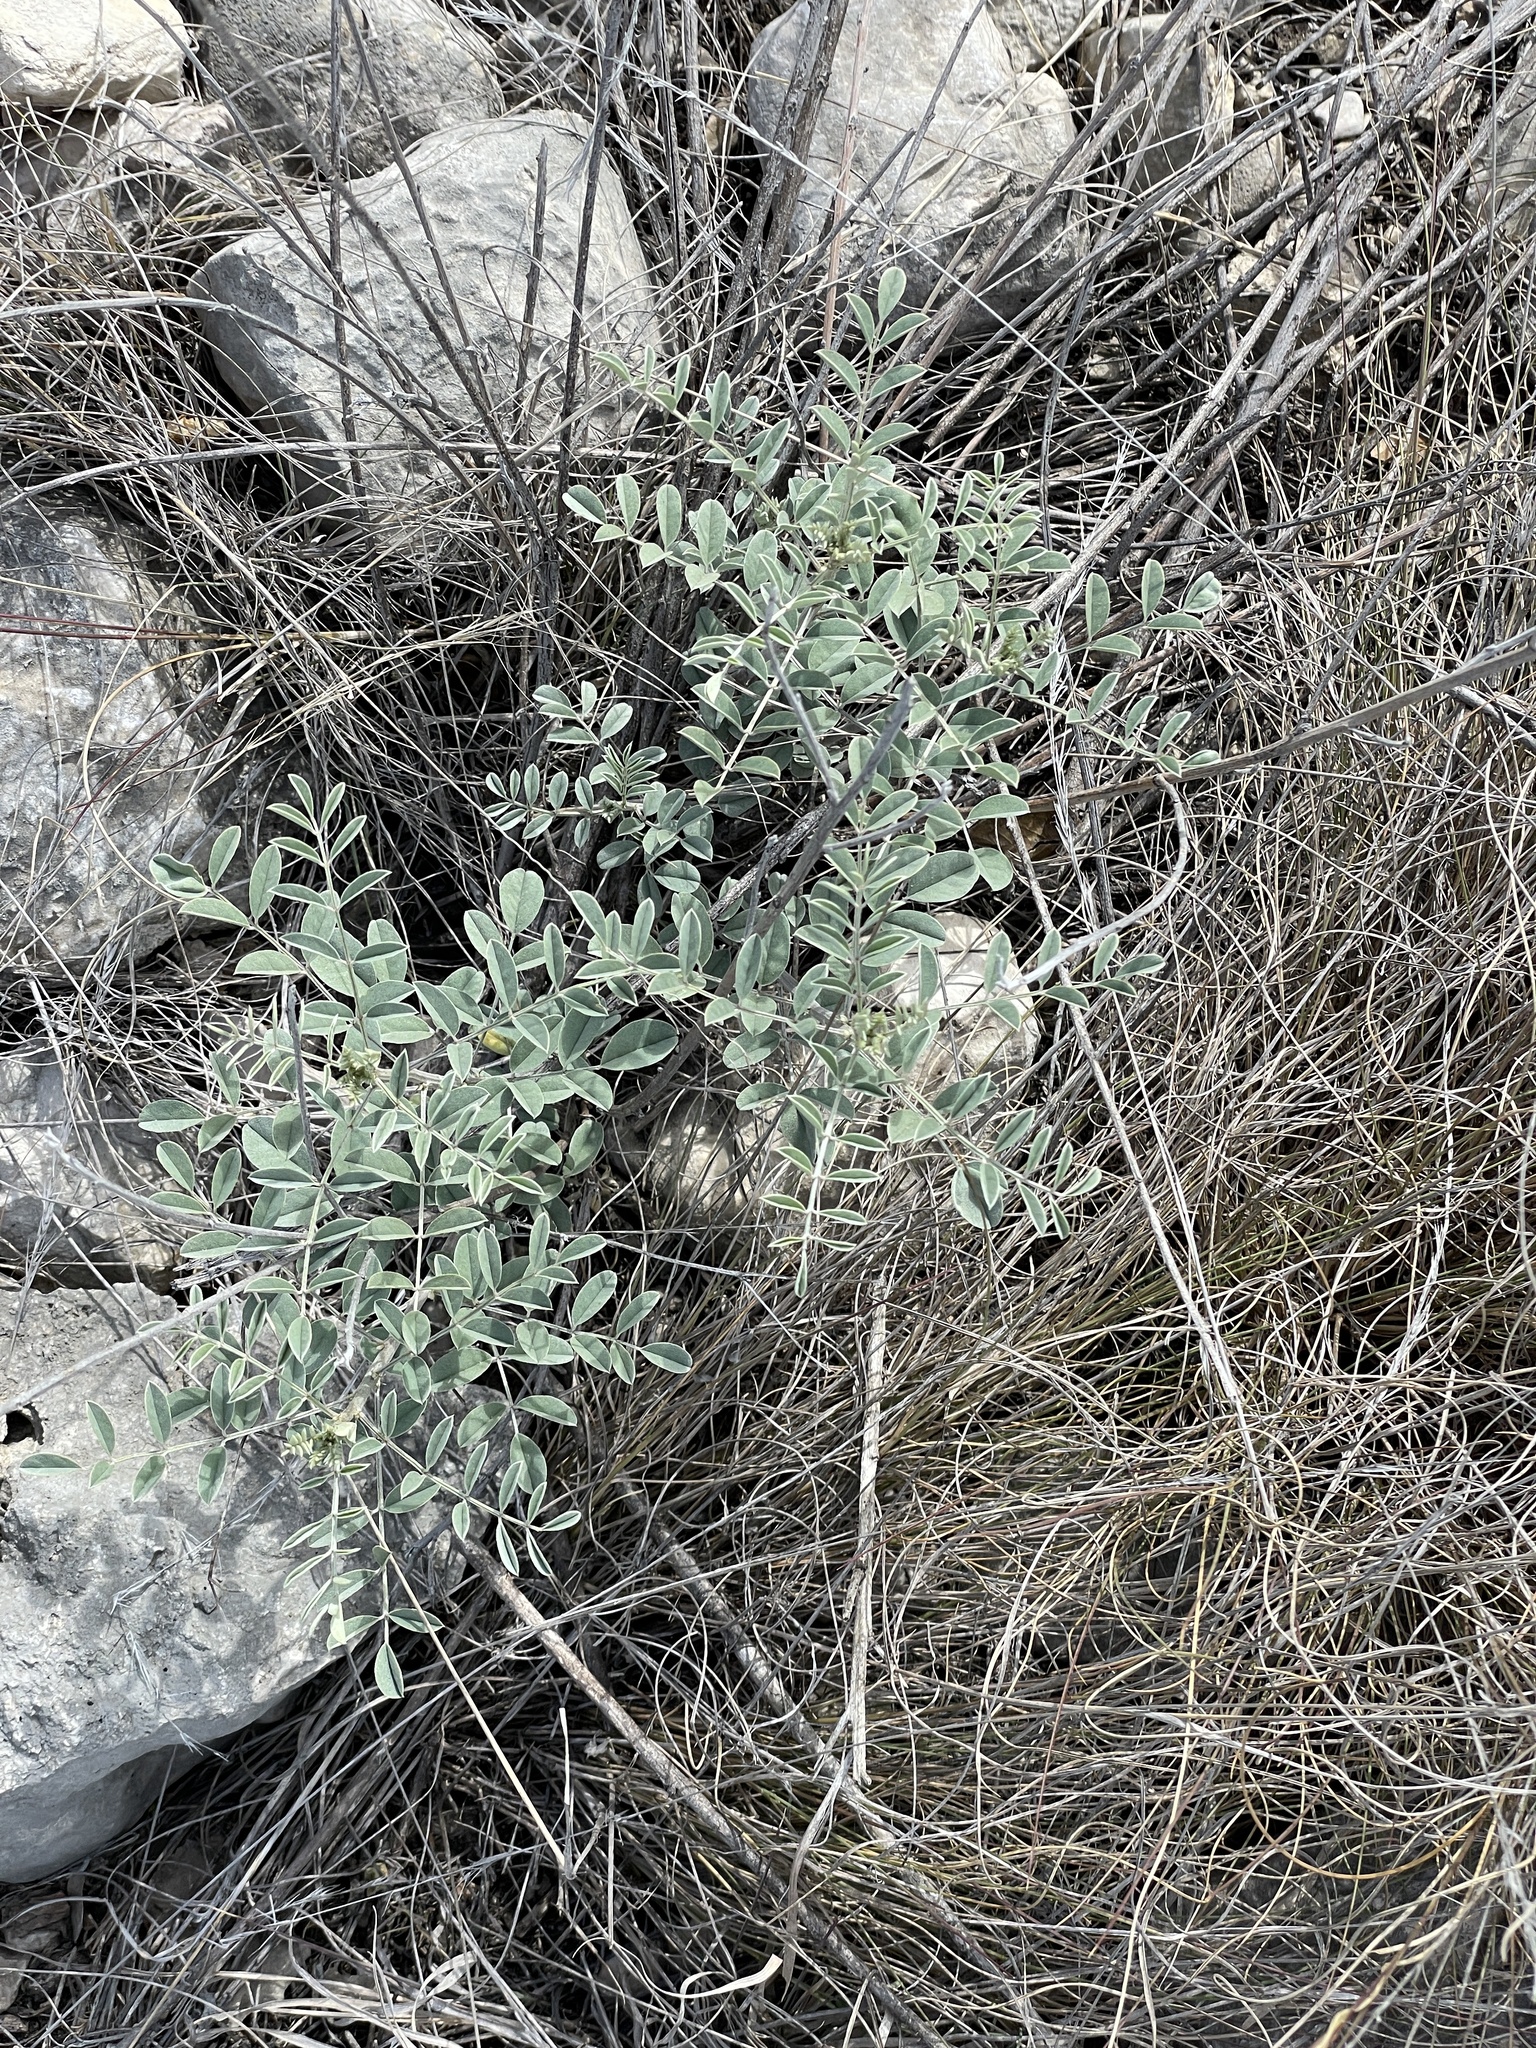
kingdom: Plantae
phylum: Tracheophyta
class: Magnoliopsida
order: Fabales
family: Fabaceae
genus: Indigofera
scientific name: Indigofera lindheimeriana
